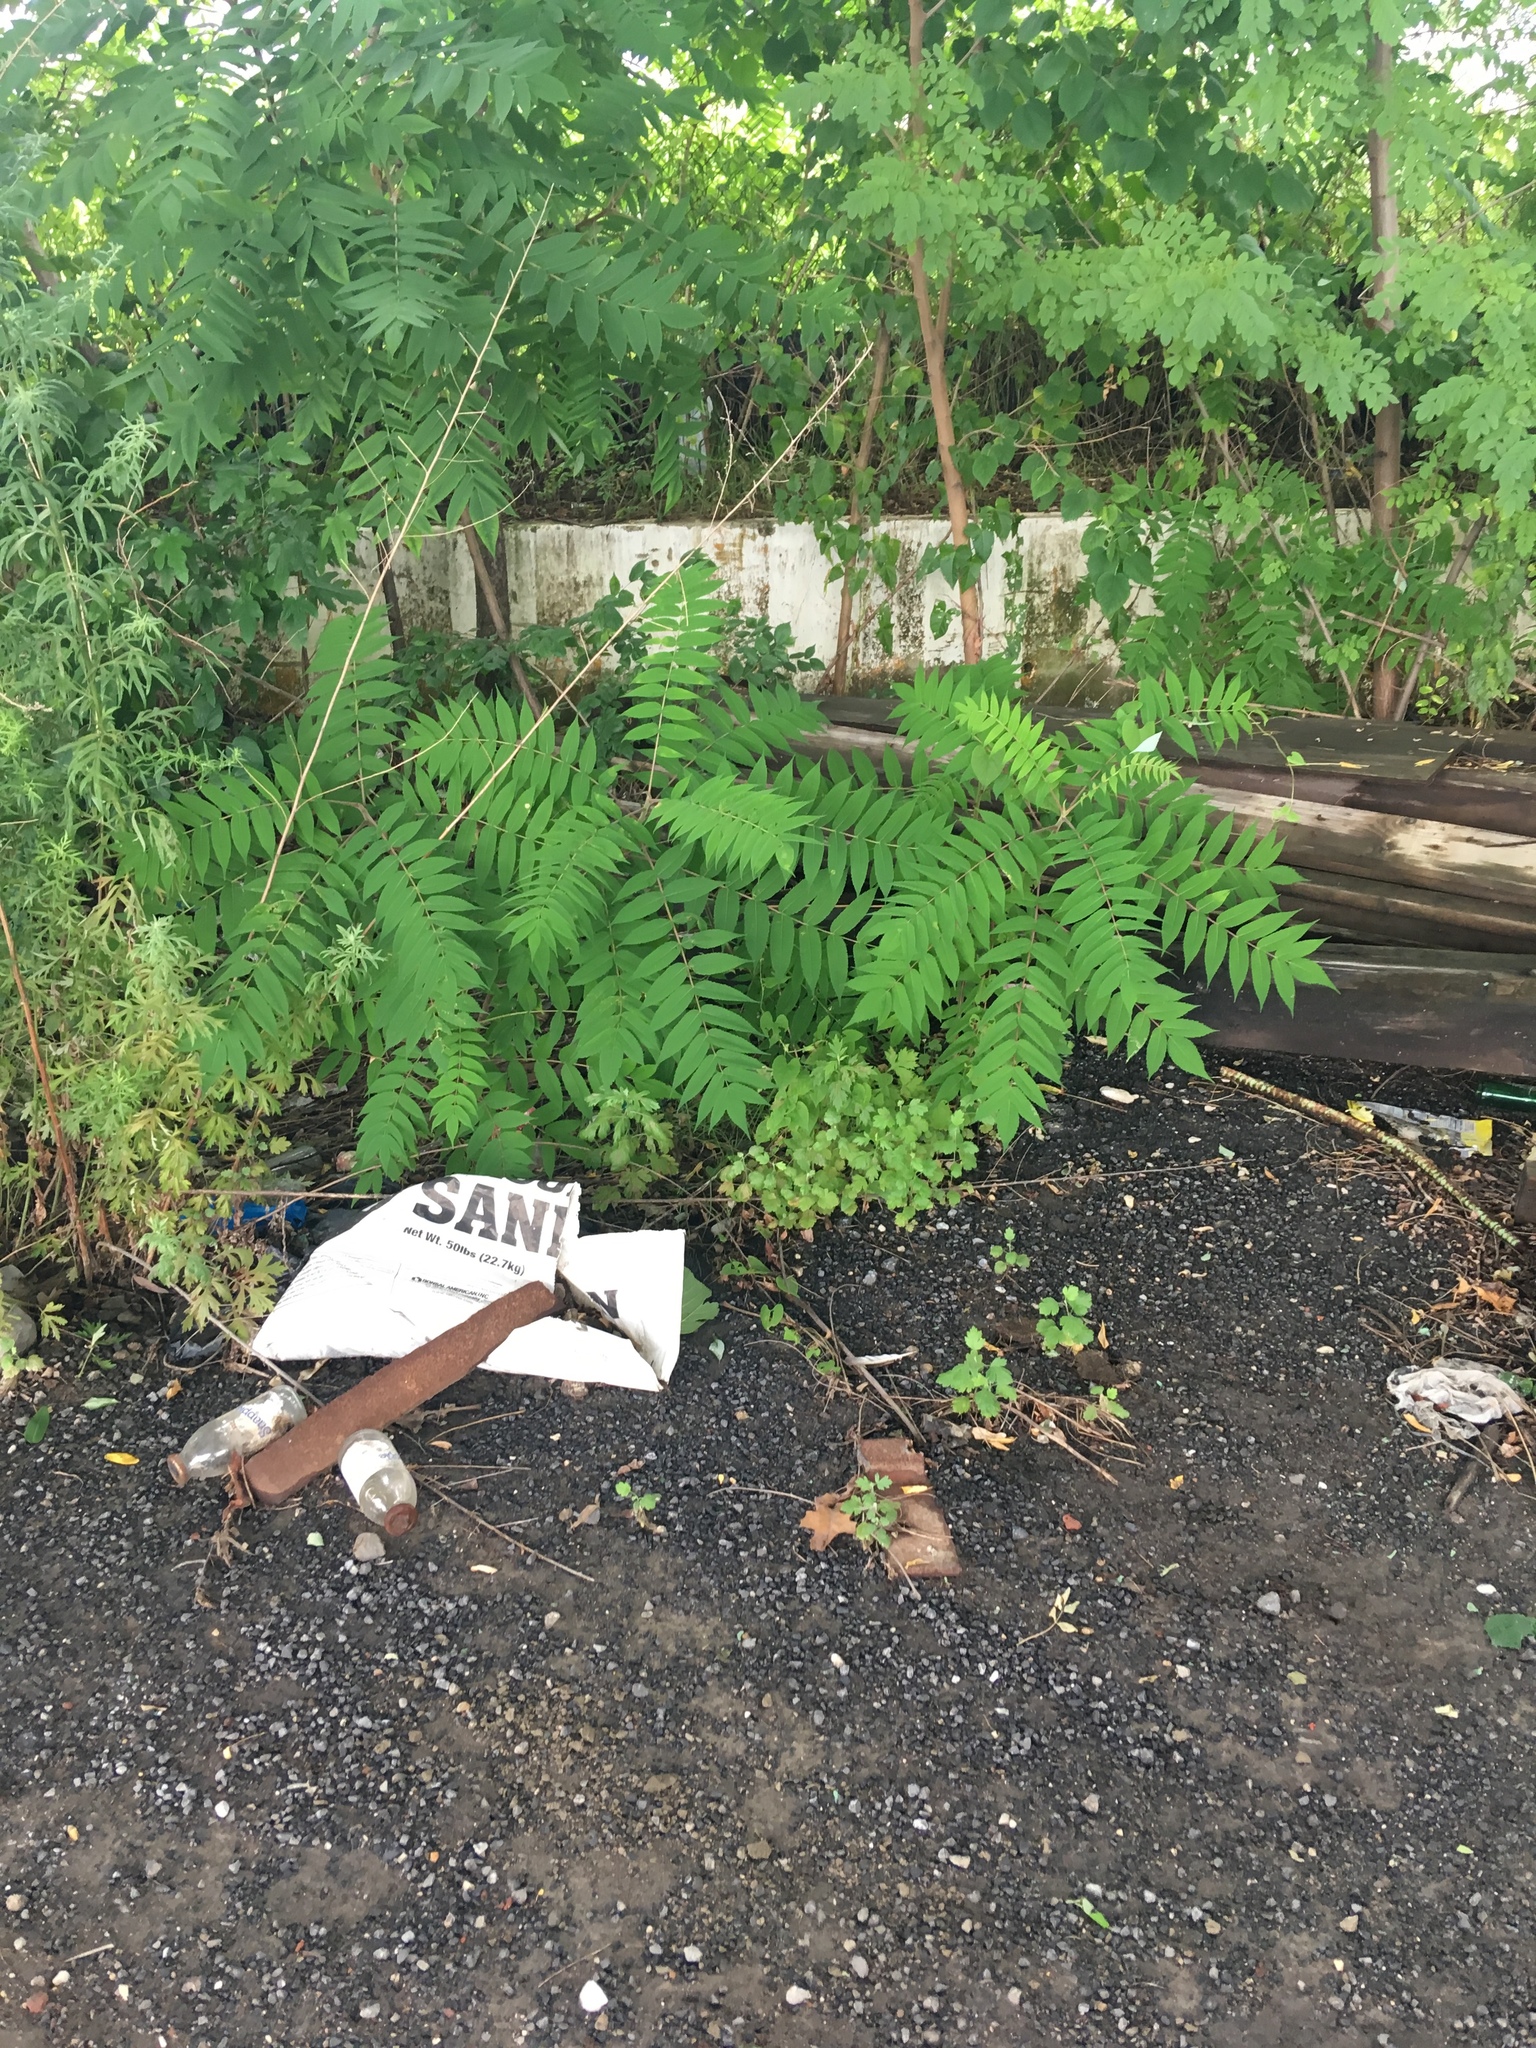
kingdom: Plantae
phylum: Tracheophyta
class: Magnoliopsida
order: Sapindales
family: Anacardiaceae
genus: Rhus
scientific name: Rhus typhina
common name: Staghorn sumac
